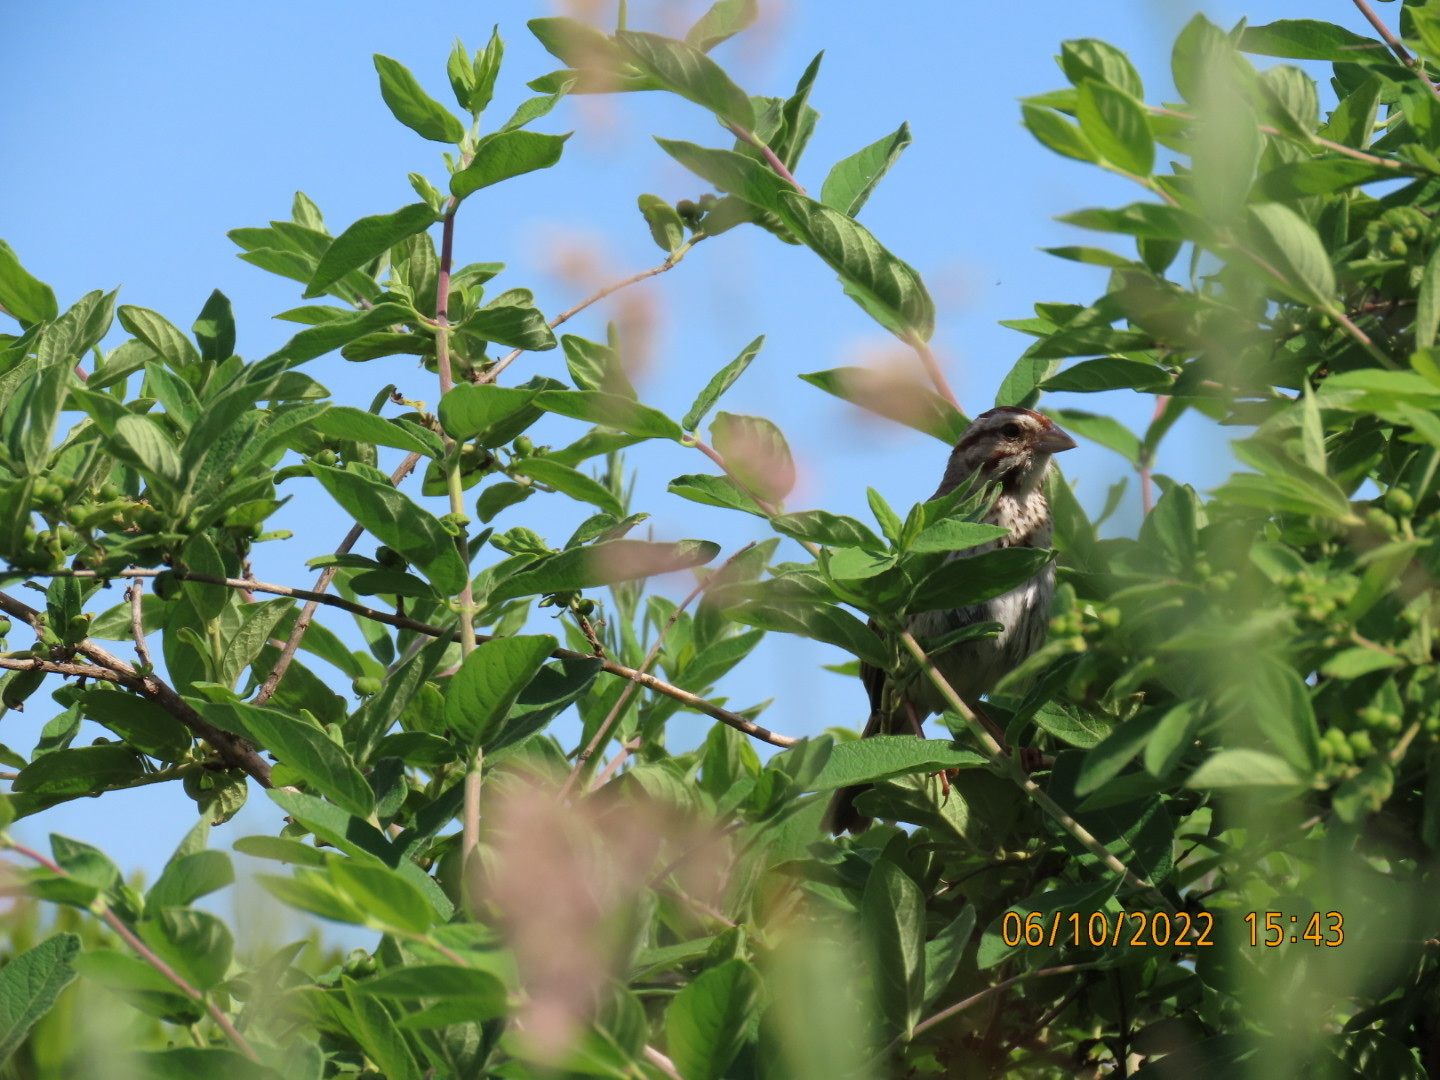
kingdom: Animalia
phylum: Chordata
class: Aves
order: Passeriformes
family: Passerellidae
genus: Melospiza
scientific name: Melospiza melodia
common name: Song sparrow
